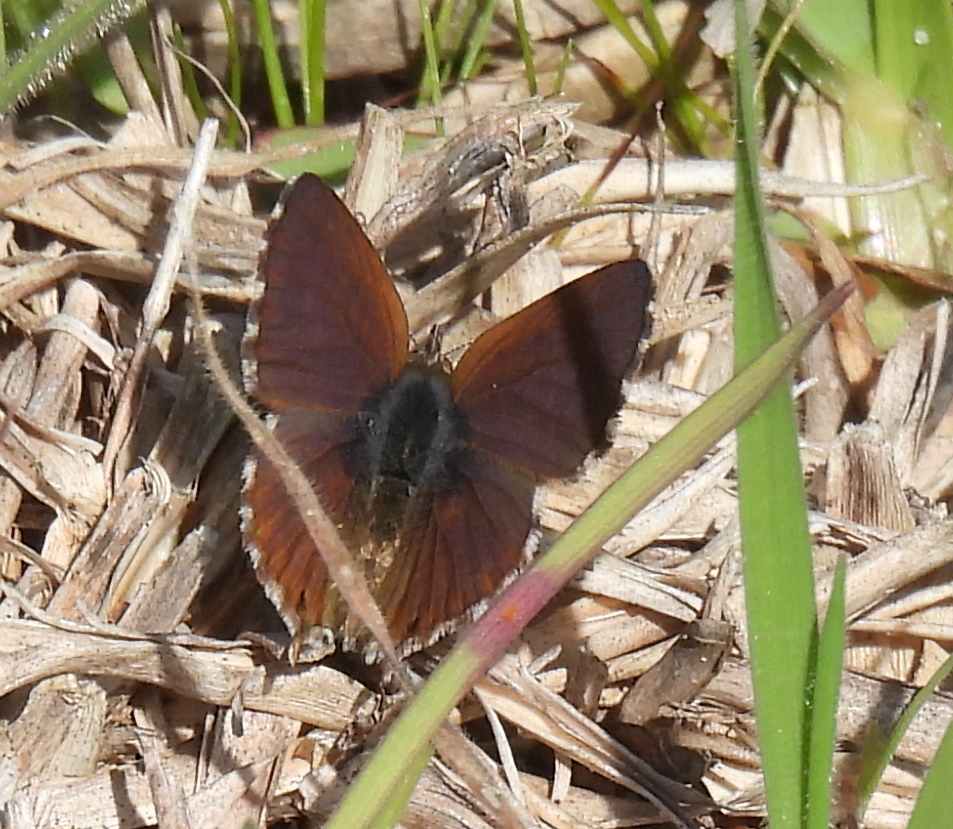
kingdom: Animalia
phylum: Arthropoda
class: Insecta
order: Lepidoptera
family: Lycaenidae
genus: Cacyreus
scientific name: Cacyreus fracta
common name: Water bronze
